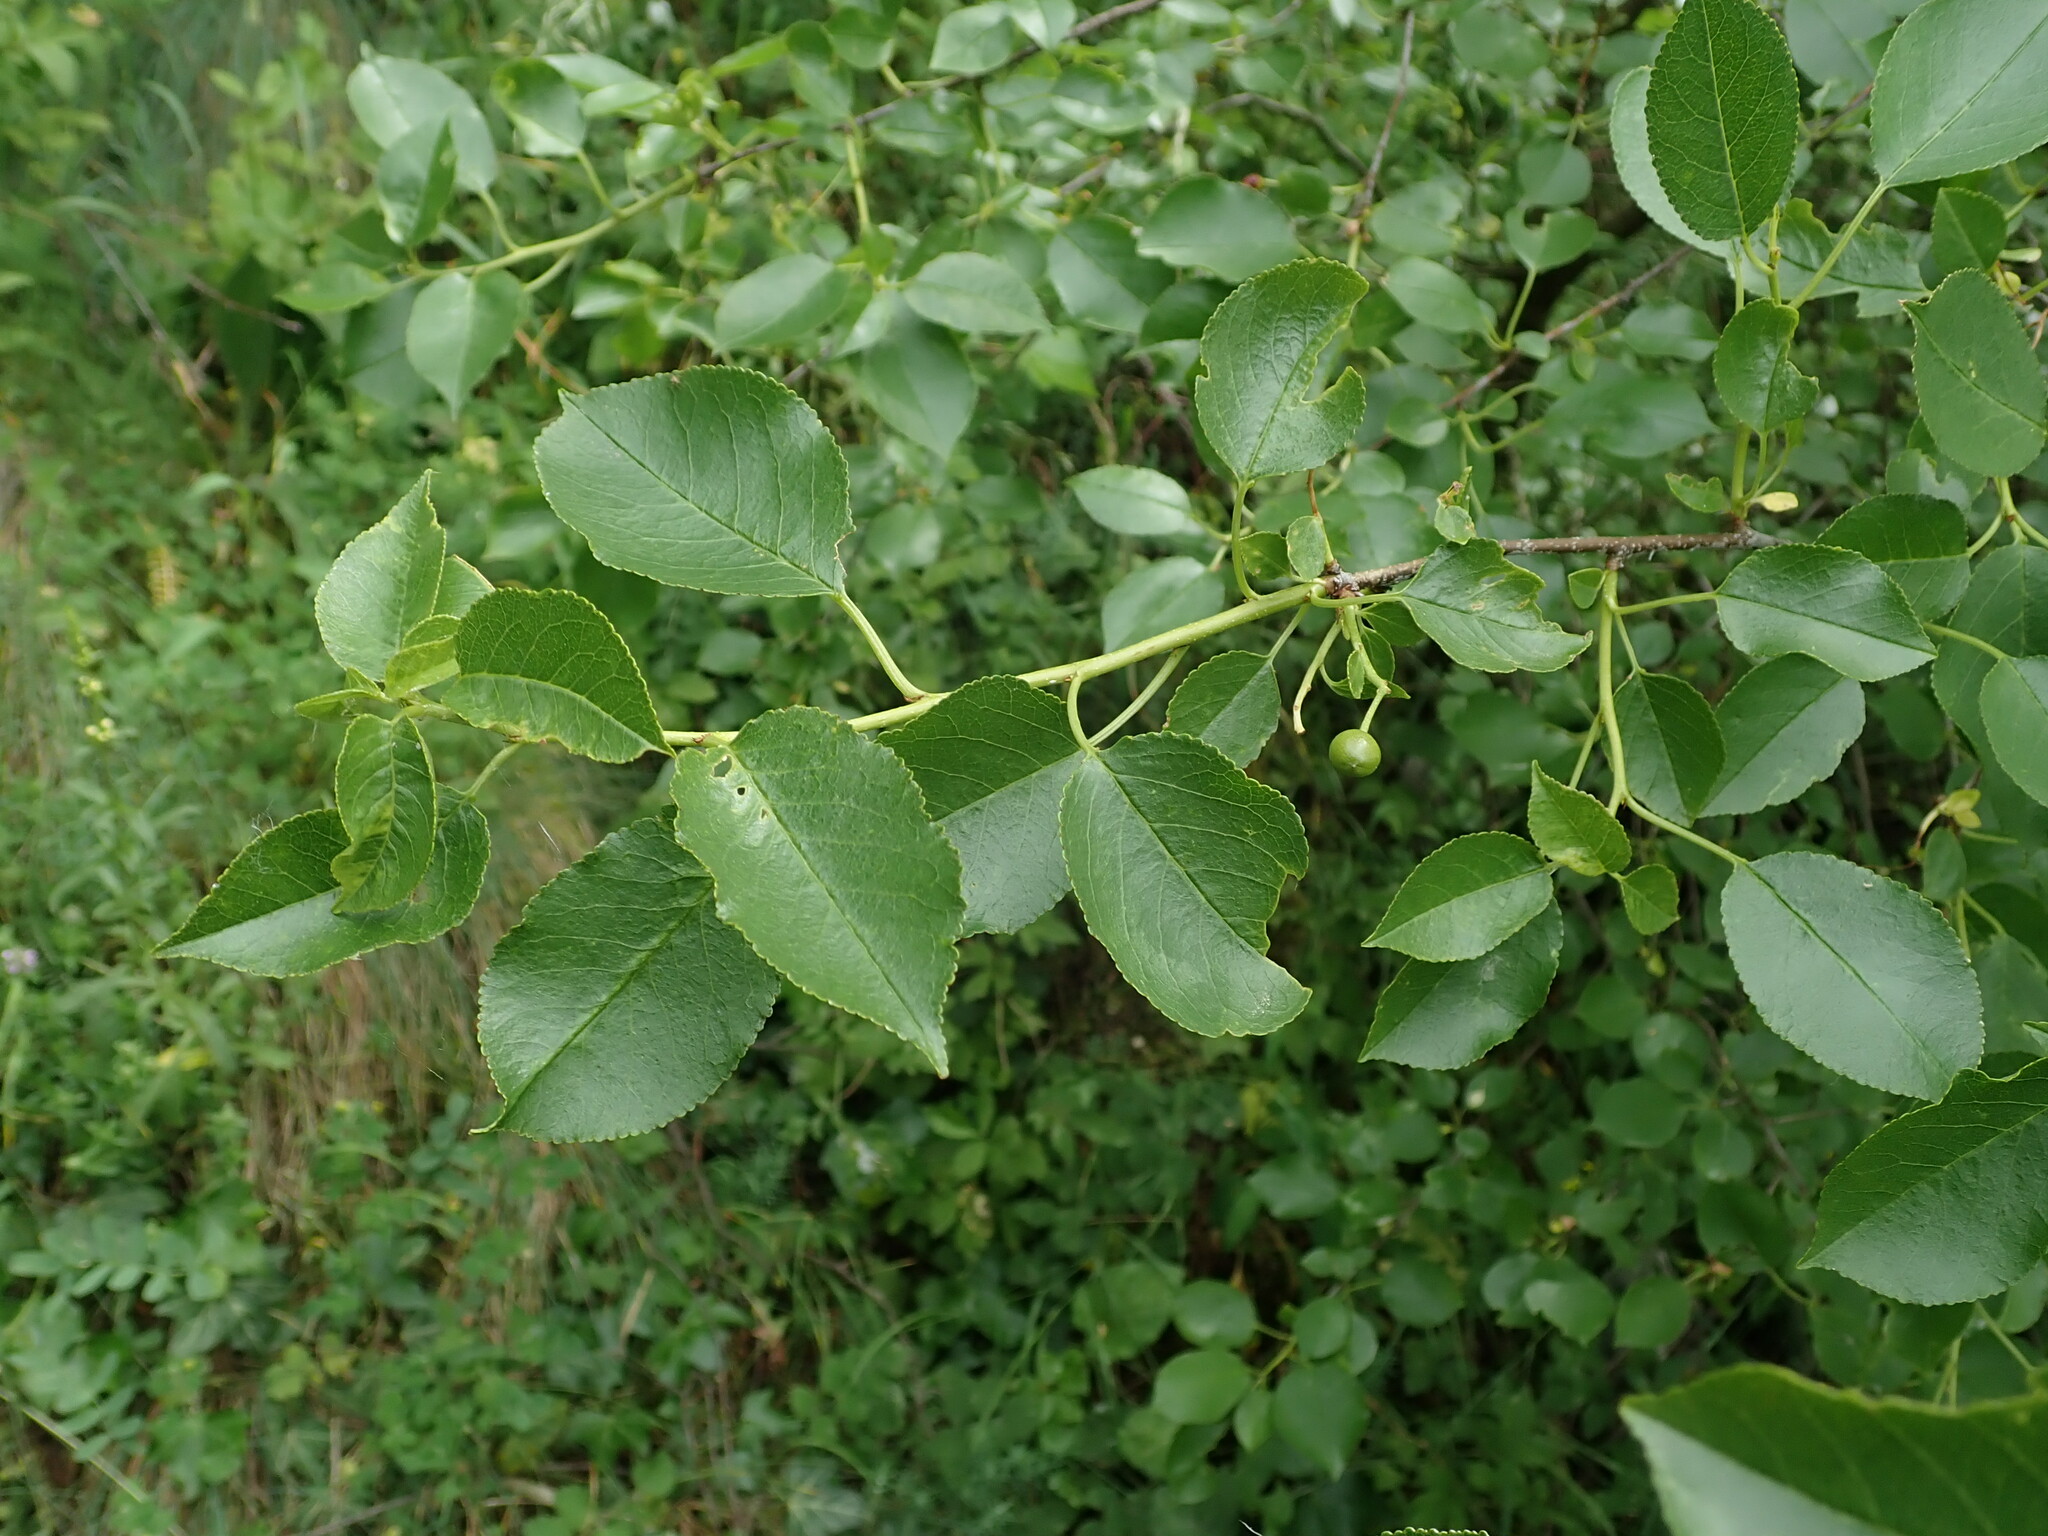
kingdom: Plantae
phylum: Tracheophyta
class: Magnoliopsida
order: Rosales
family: Rosaceae
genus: Prunus
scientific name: Prunus mahaleb
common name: Mahaleb cherry
